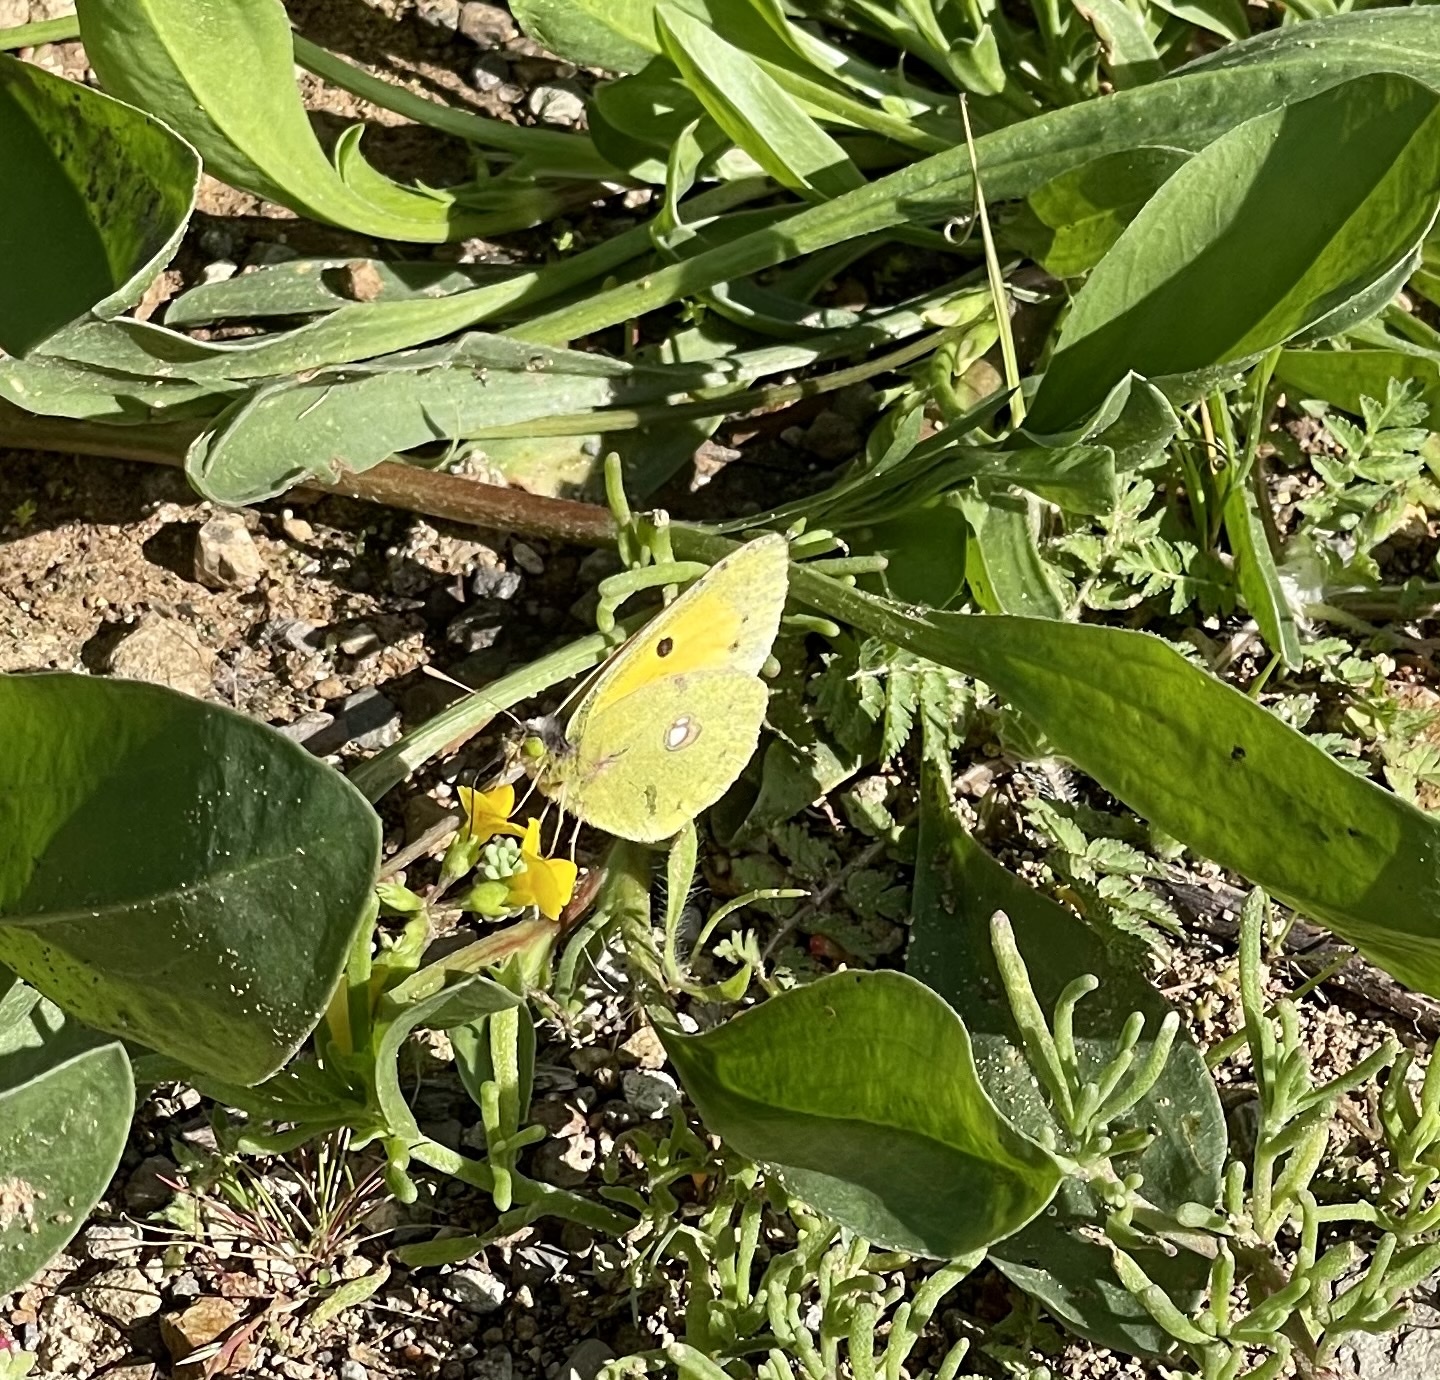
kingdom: Animalia
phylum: Arthropoda
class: Insecta
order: Lepidoptera
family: Pieridae
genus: Colias
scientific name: Colias croceus
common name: Clouded yellow
